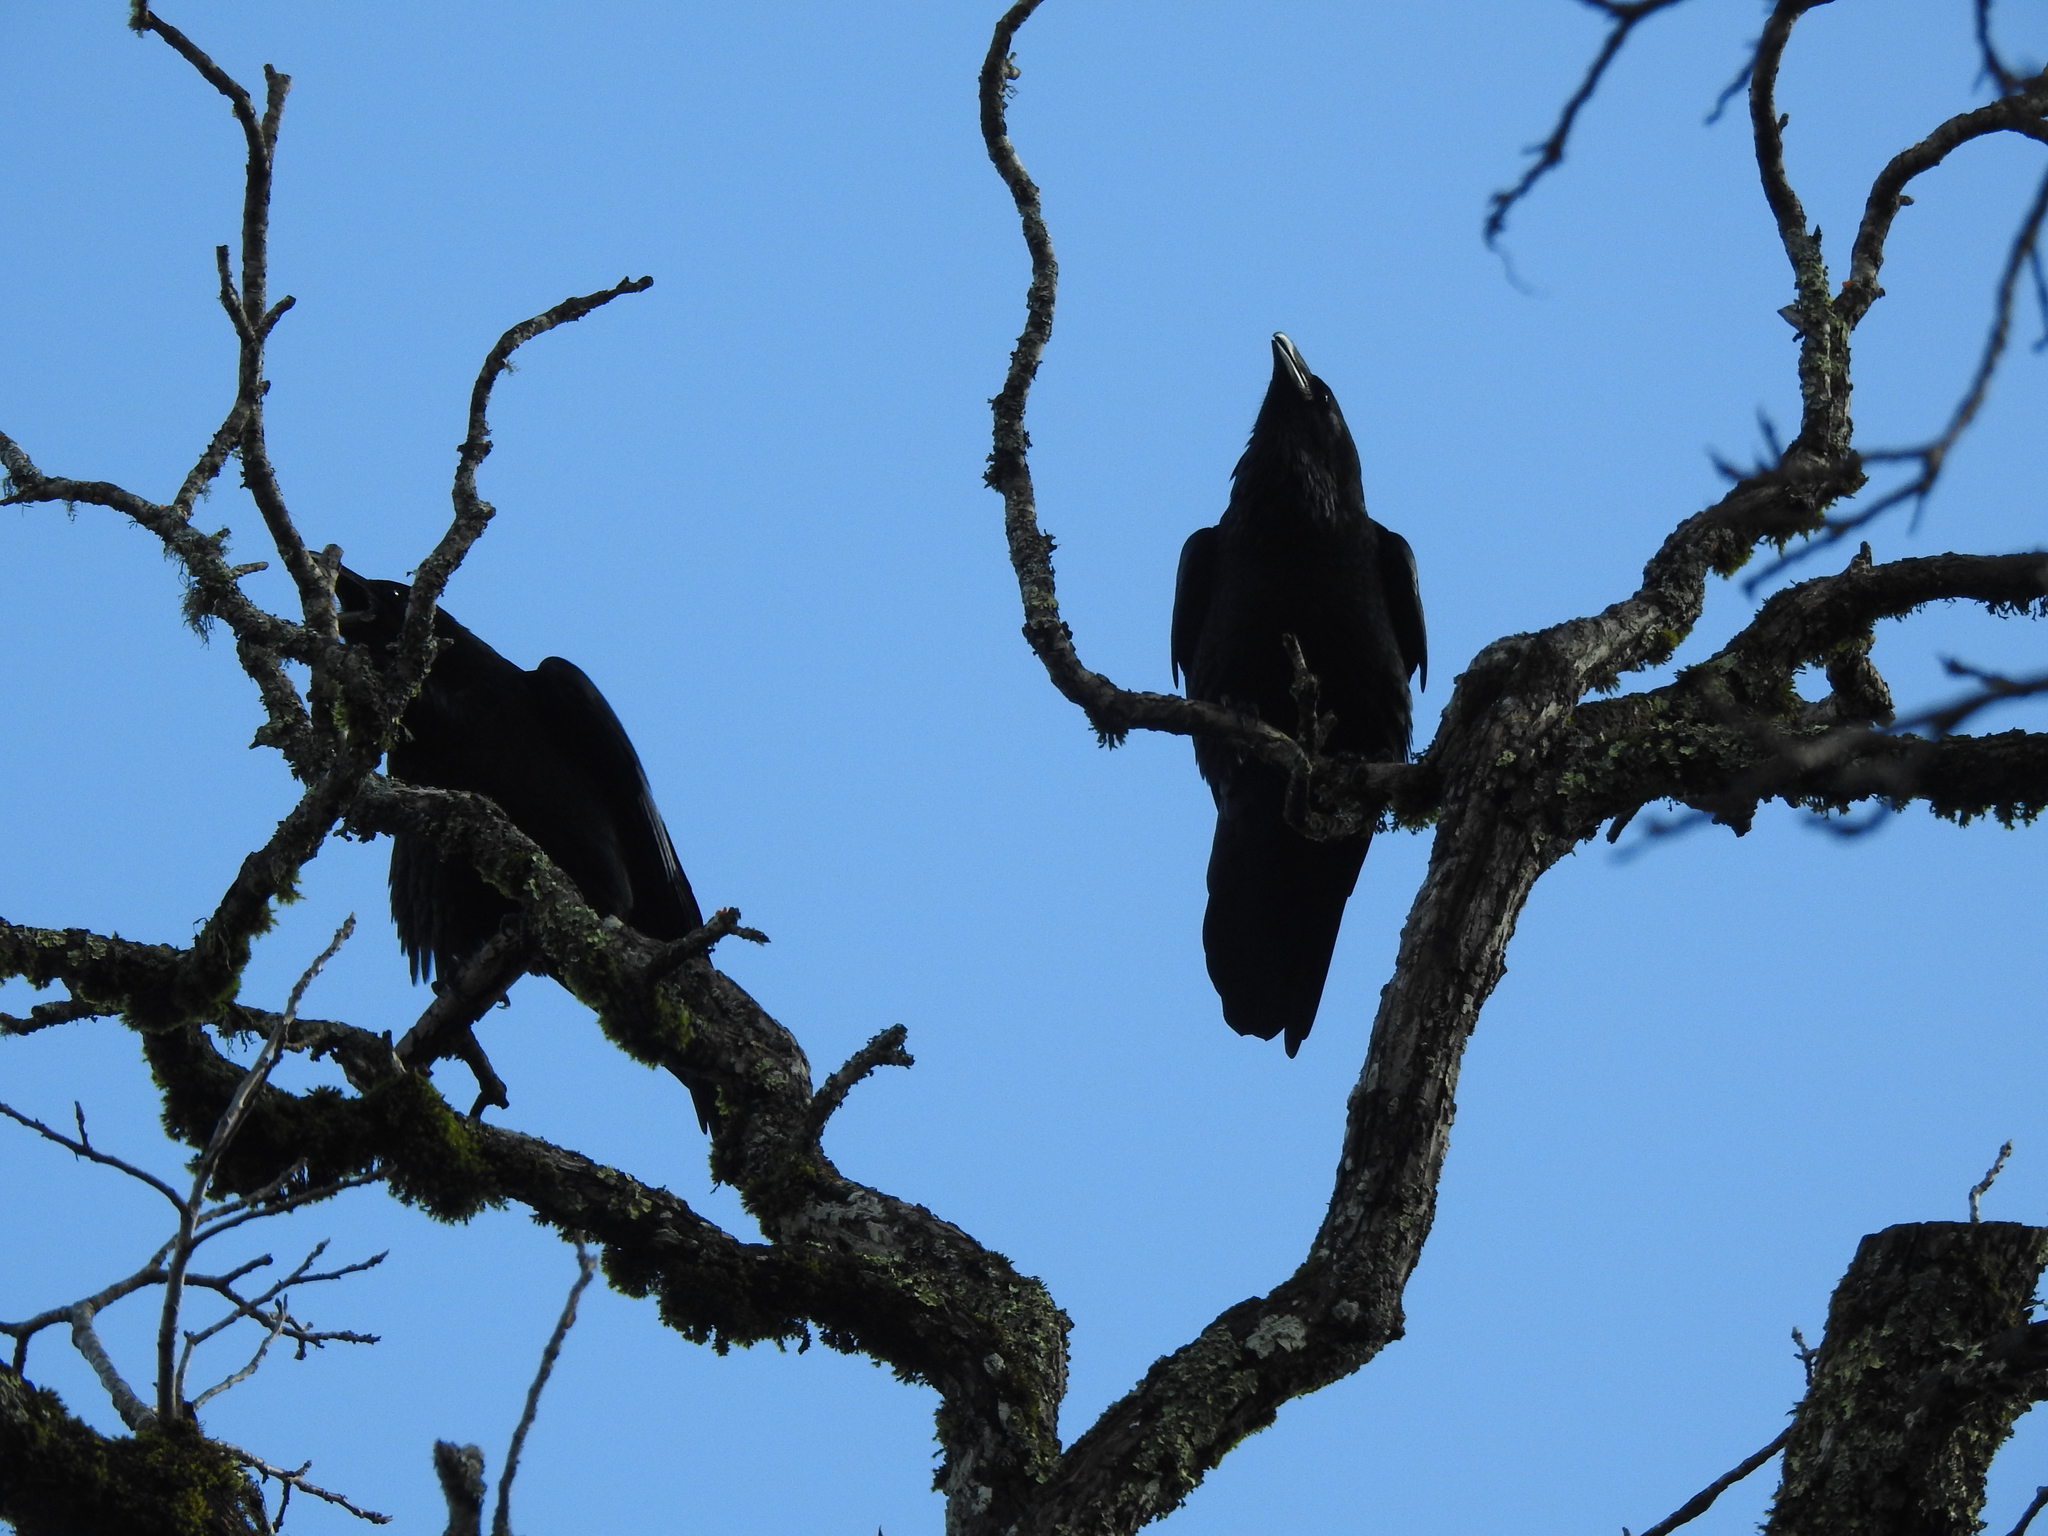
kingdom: Animalia
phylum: Chordata
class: Aves
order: Passeriformes
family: Corvidae
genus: Corvus
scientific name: Corvus corax
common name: Common raven
